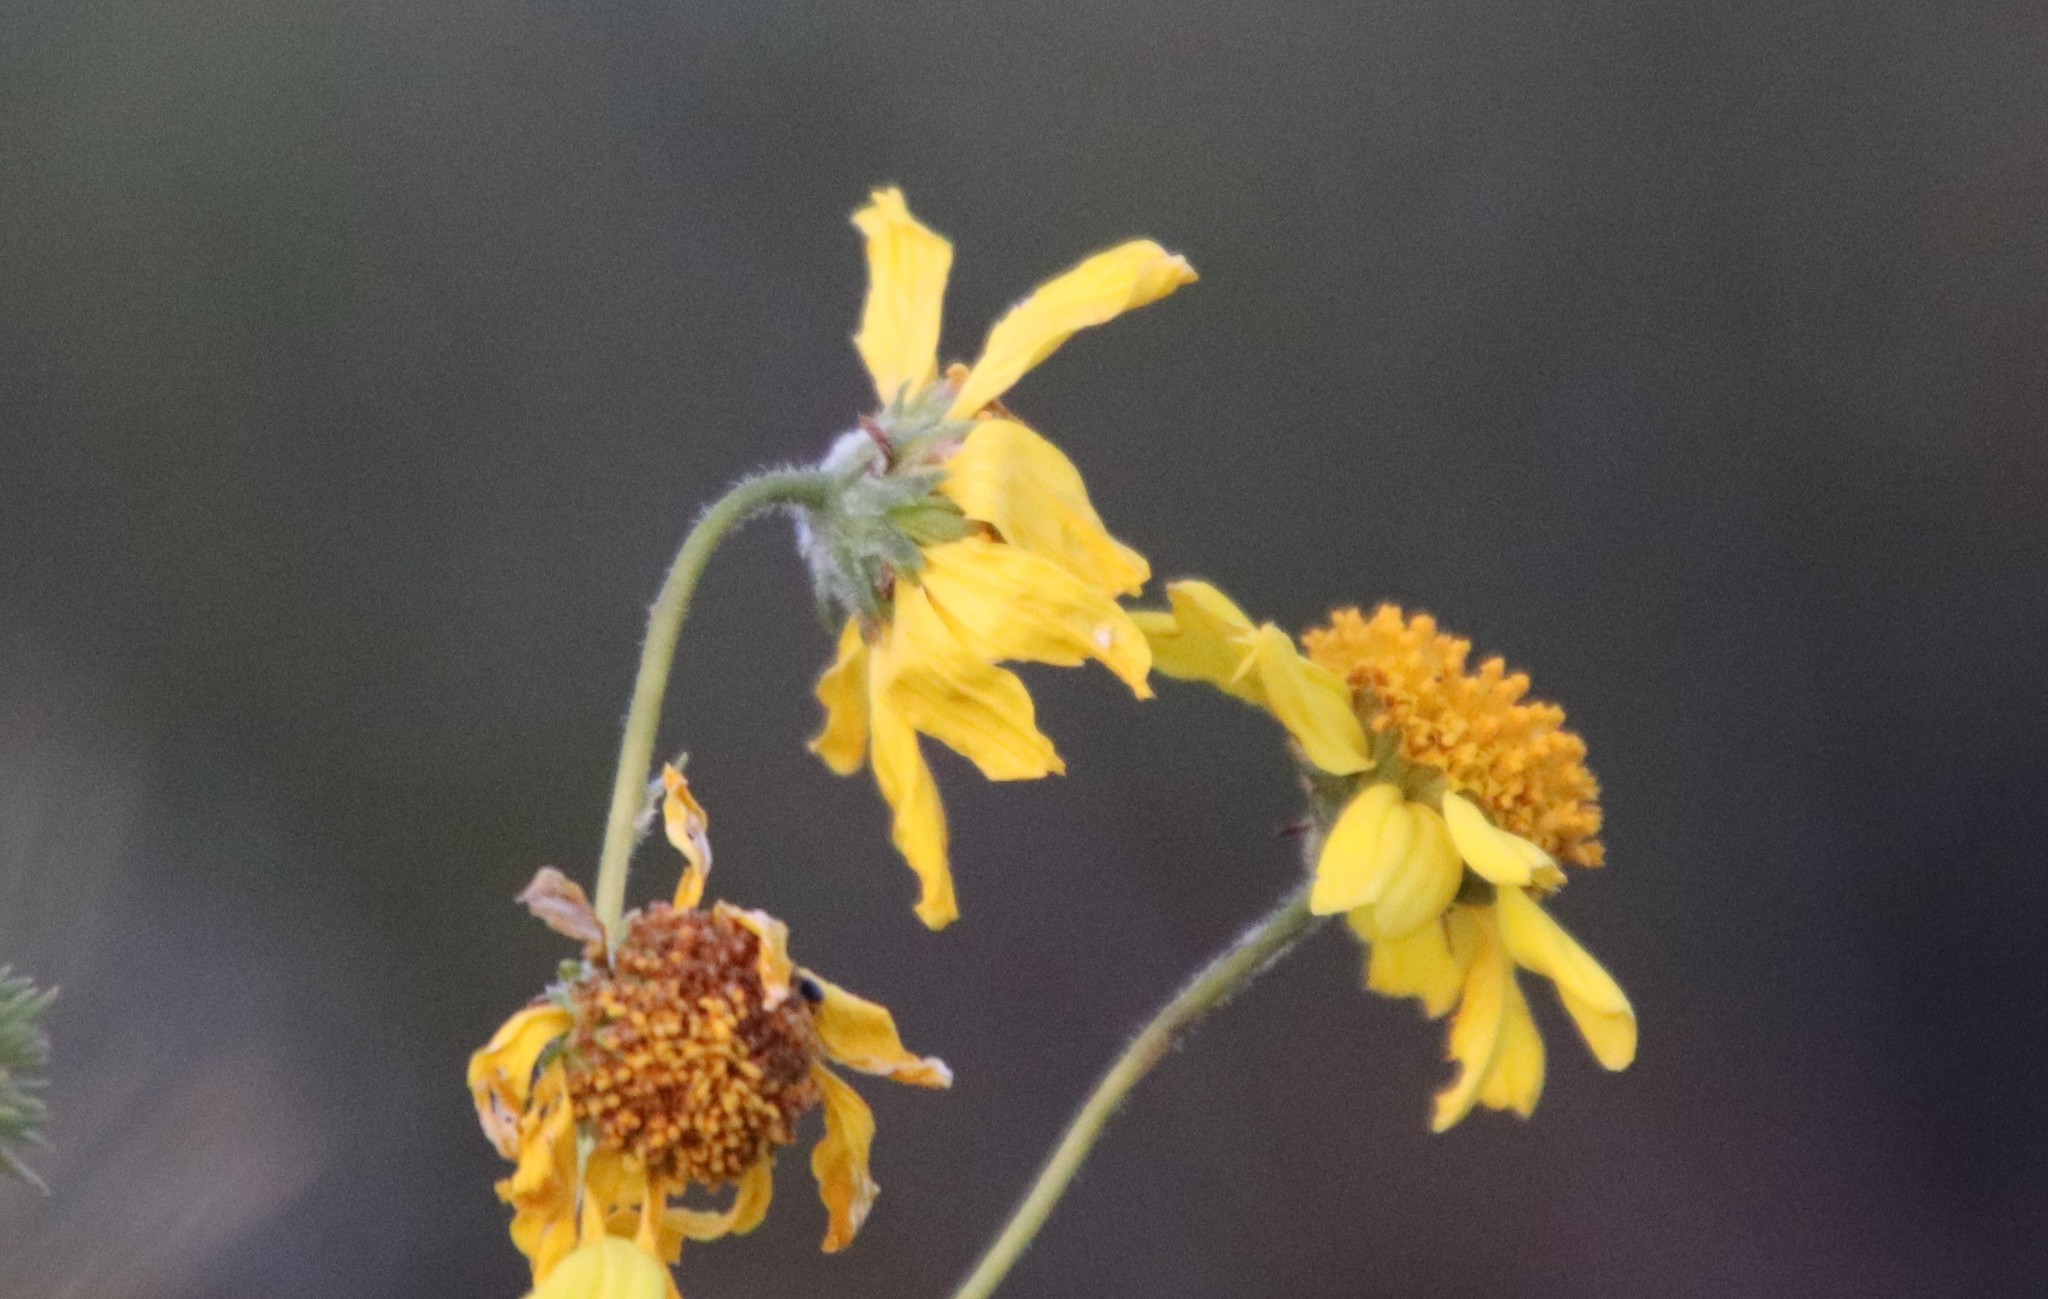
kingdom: Plantae
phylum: Tracheophyta
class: Magnoliopsida
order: Asterales
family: Asteraceae
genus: Encelia
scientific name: Encelia farinosa
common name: Brittlebush
